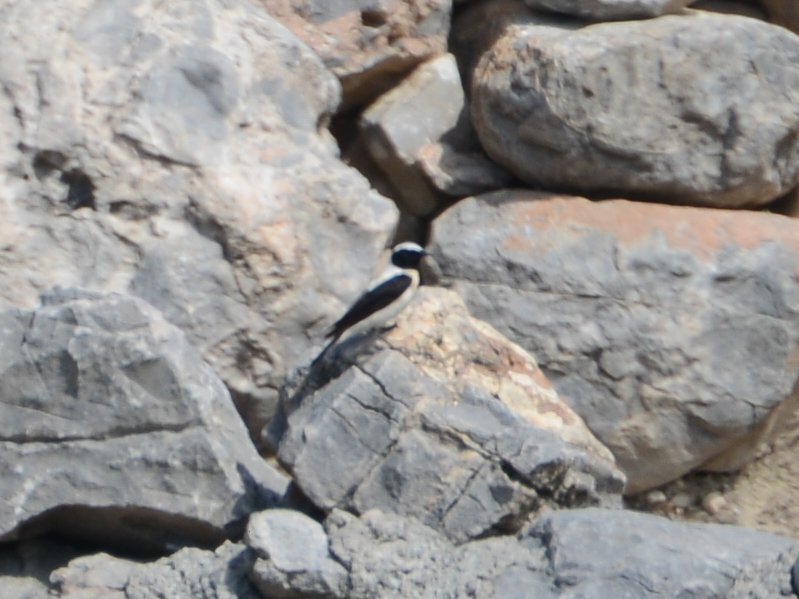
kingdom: Animalia
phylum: Chordata
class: Aves
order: Passeriformes
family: Muscicapidae
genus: Oenanthe
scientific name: Oenanthe hispanica
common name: Black-eared wheatear
